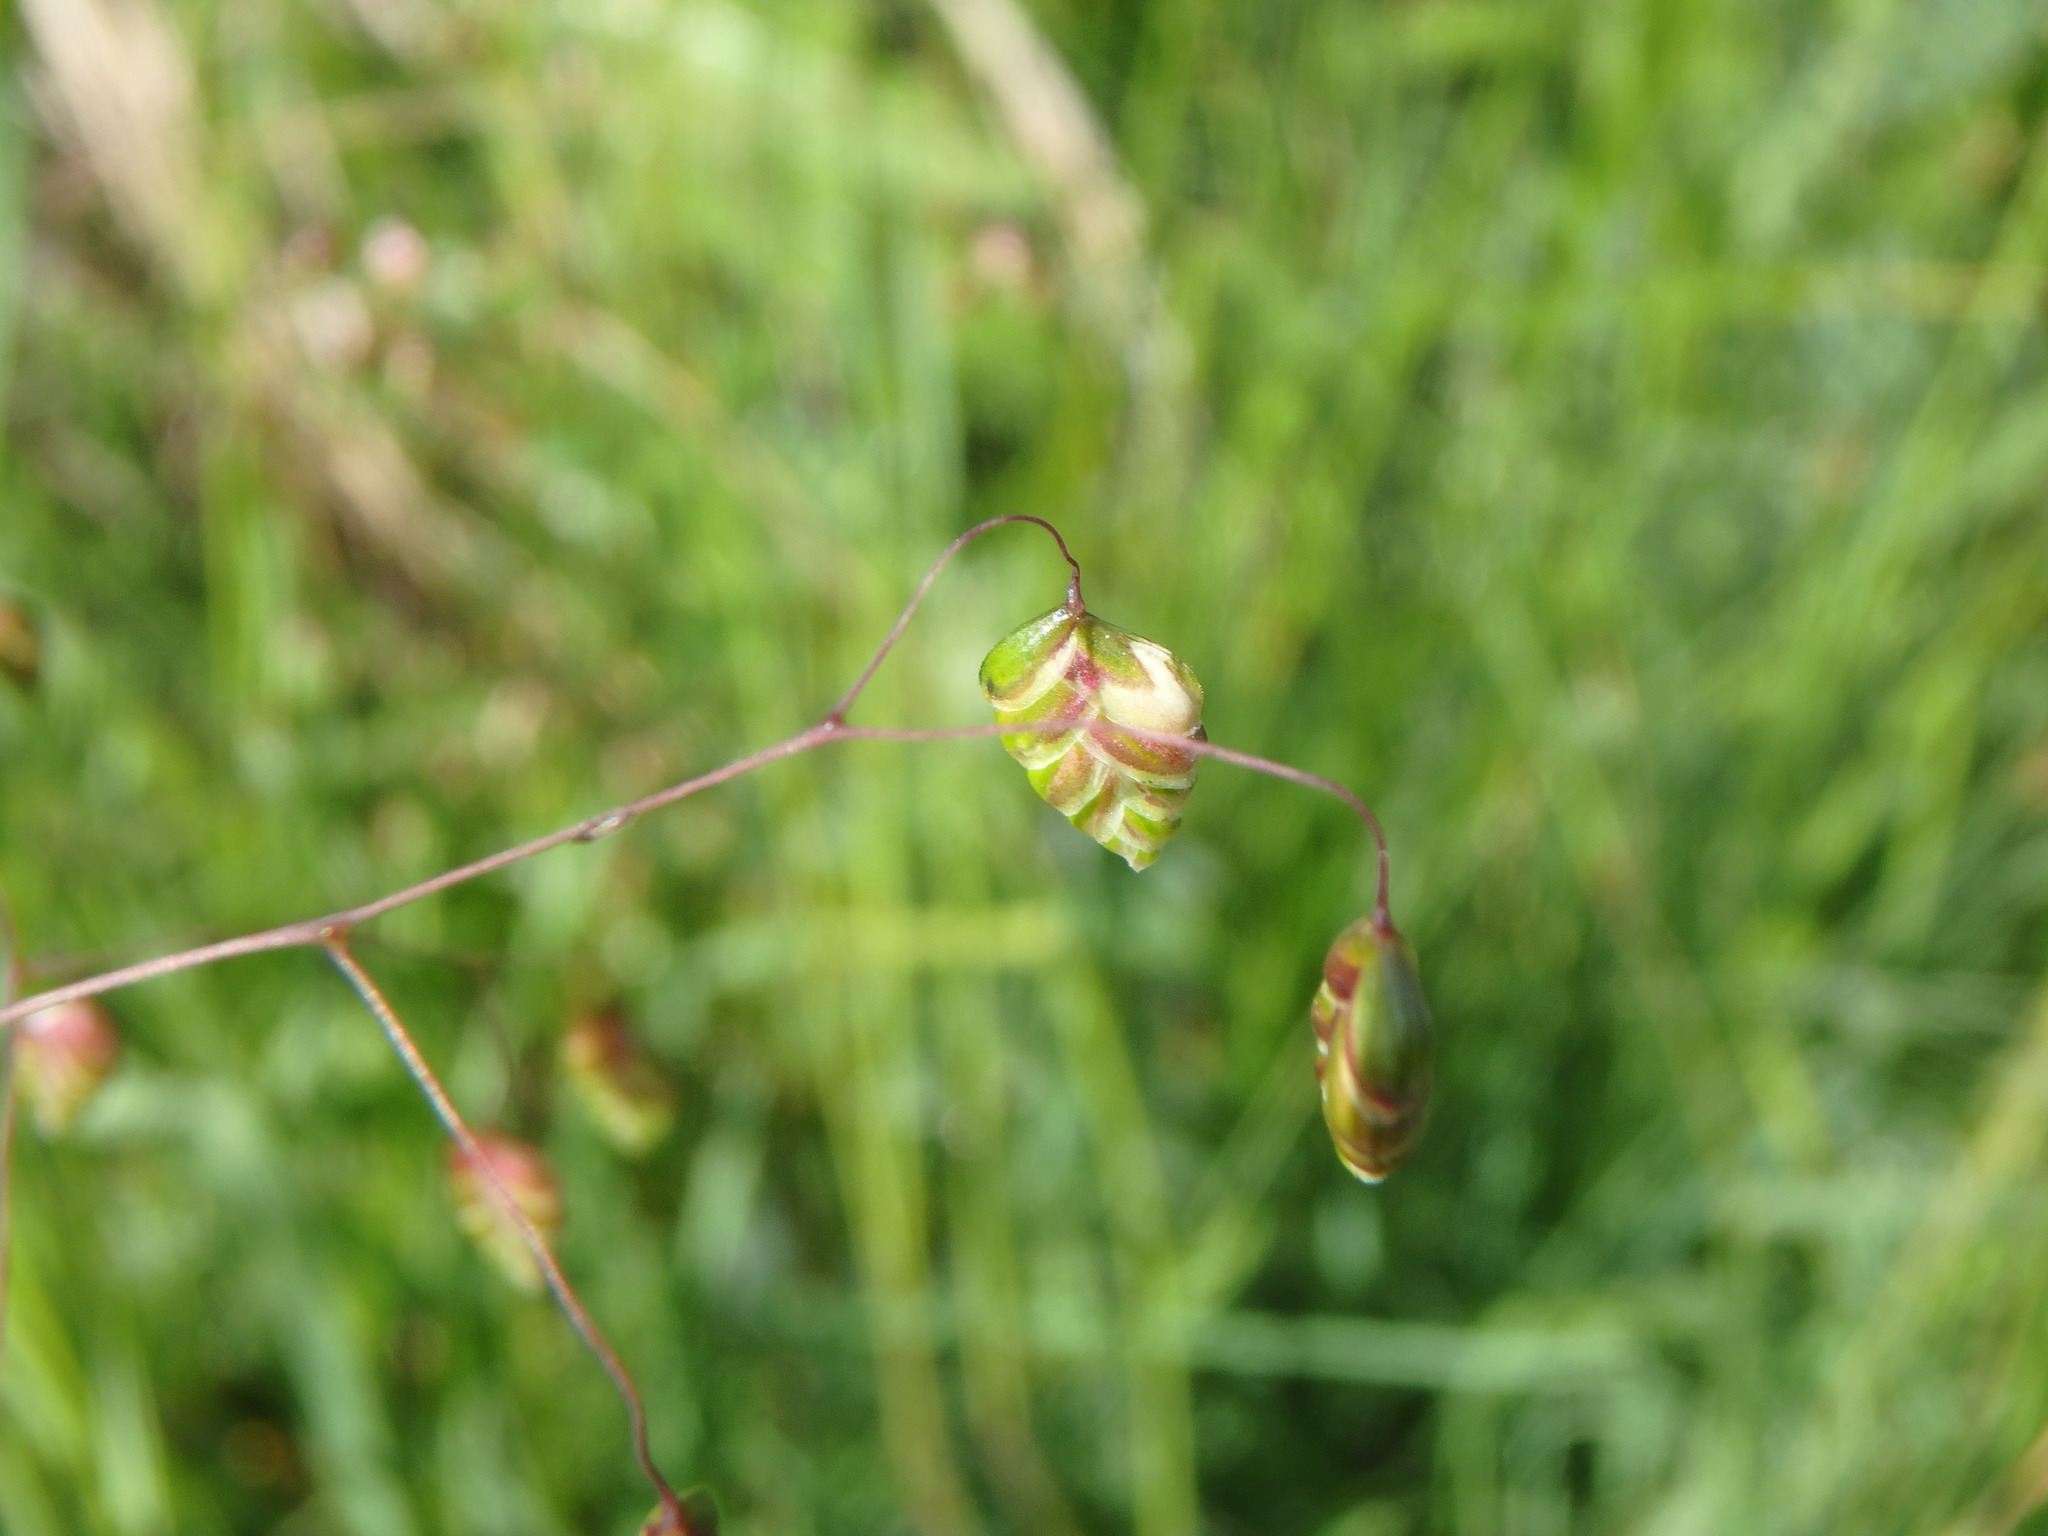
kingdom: Plantae
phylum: Tracheophyta
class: Liliopsida
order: Poales
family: Poaceae
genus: Briza
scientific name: Briza media
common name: Quaking grass
